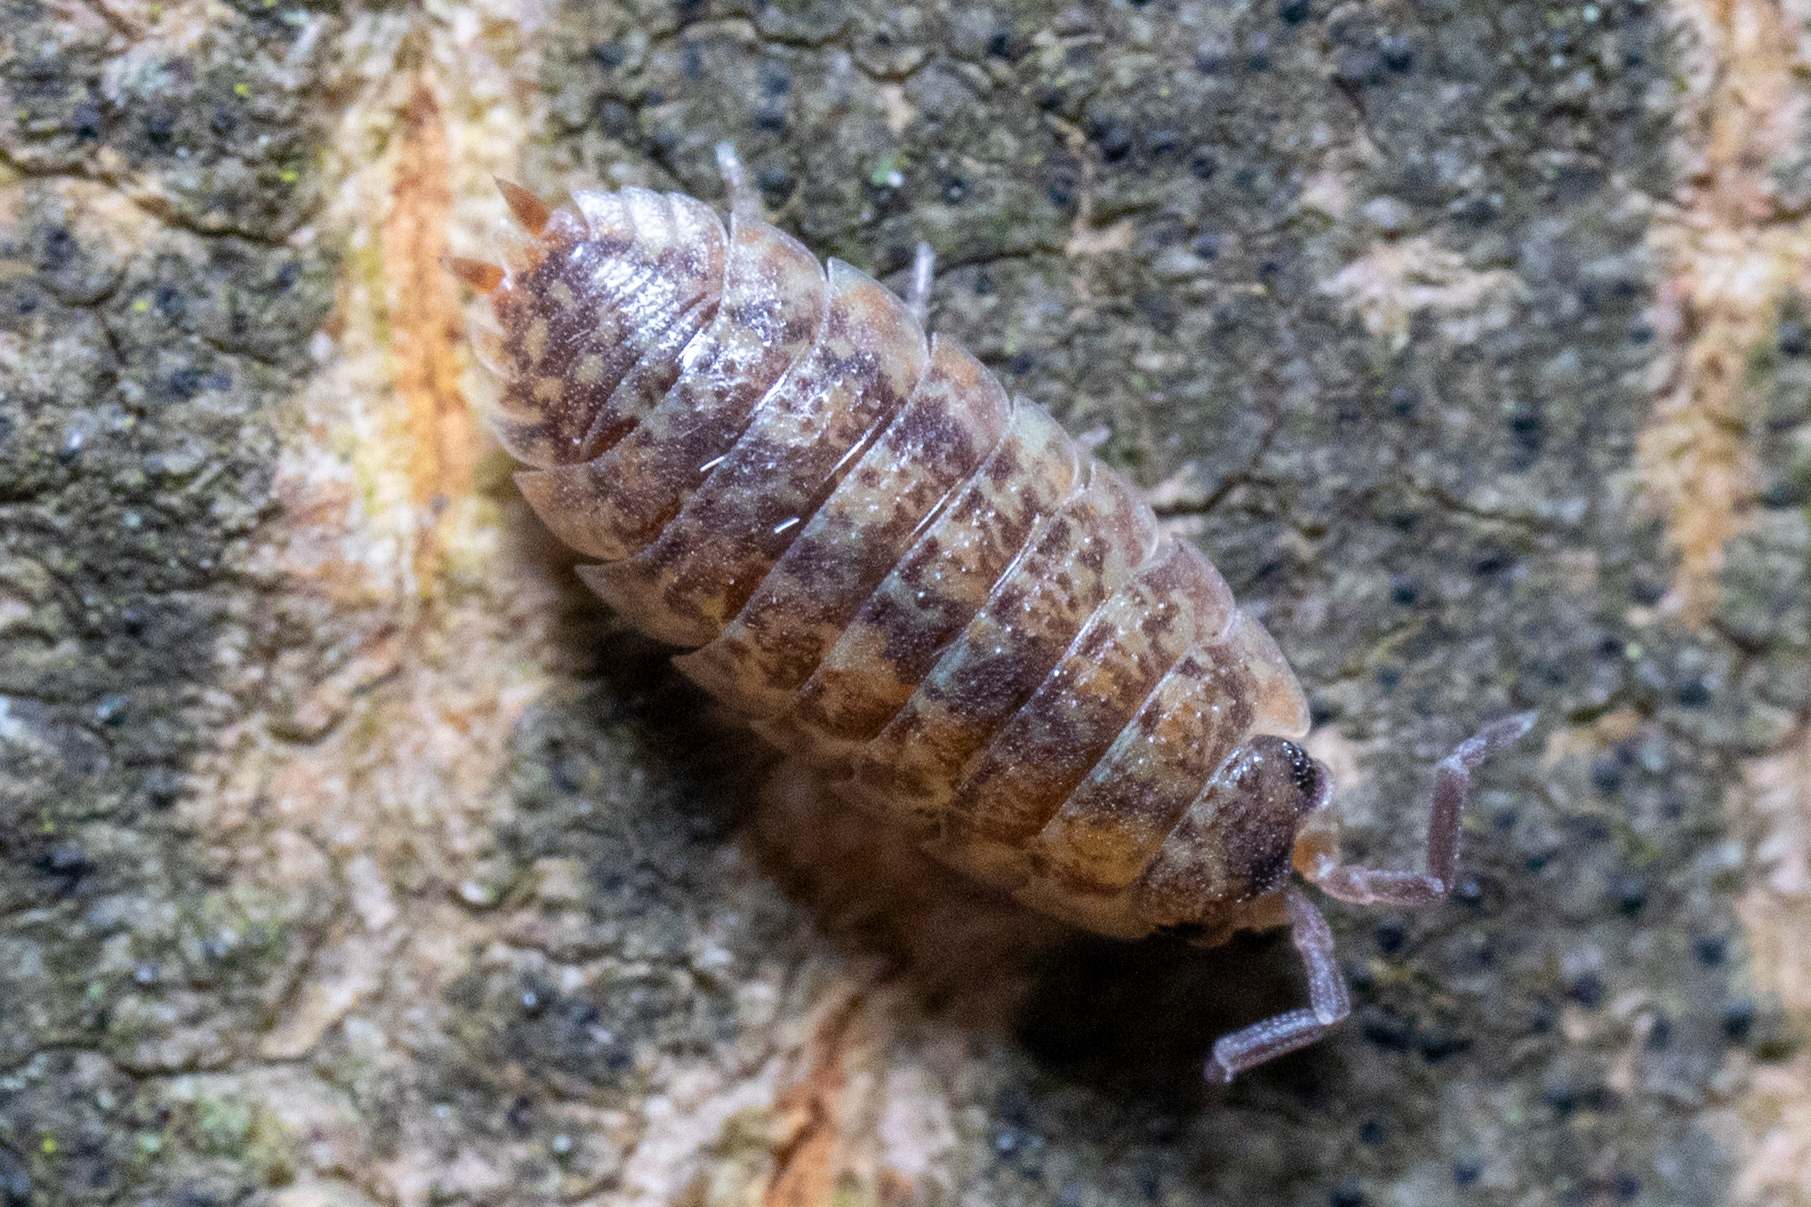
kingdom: Animalia
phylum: Arthropoda
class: Malacostraca
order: Isopoda
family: Porcellionidae
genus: Porcellio
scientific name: Porcellio scaber
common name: Common rough woodlouse
